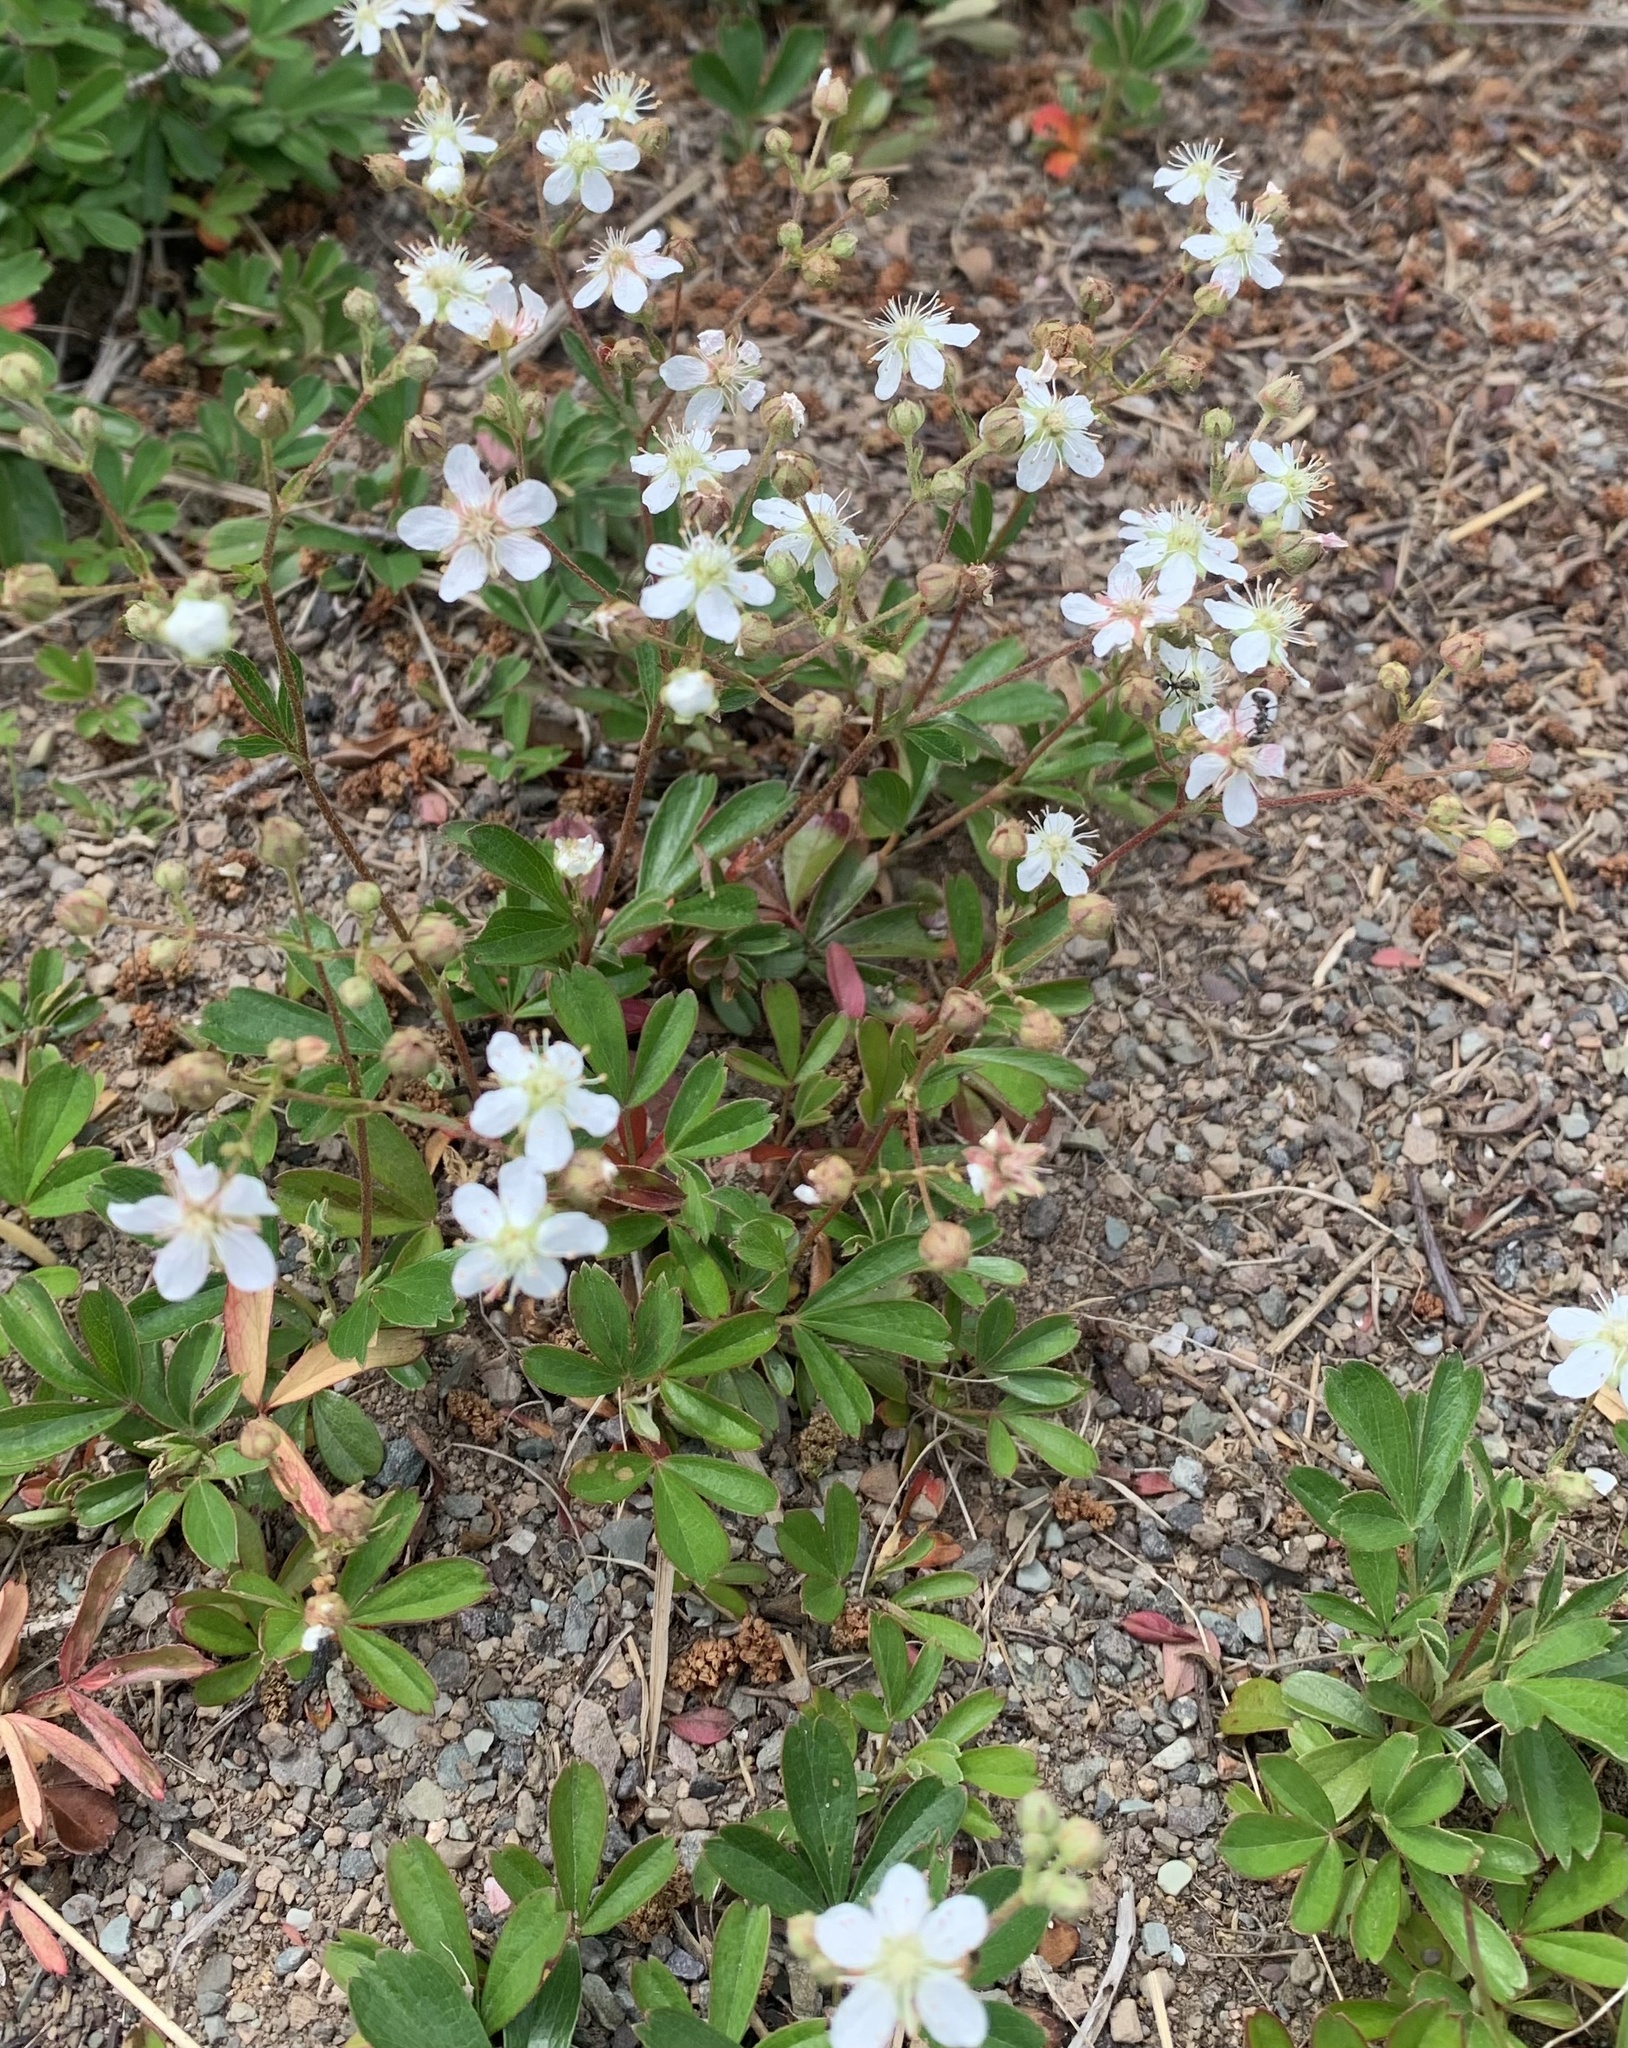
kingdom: Plantae
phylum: Tracheophyta
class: Magnoliopsida
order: Rosales
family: Rosaceae
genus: Sibbaldia
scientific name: Sibbaldia tridentata
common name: Three-toothed cinquefoil
